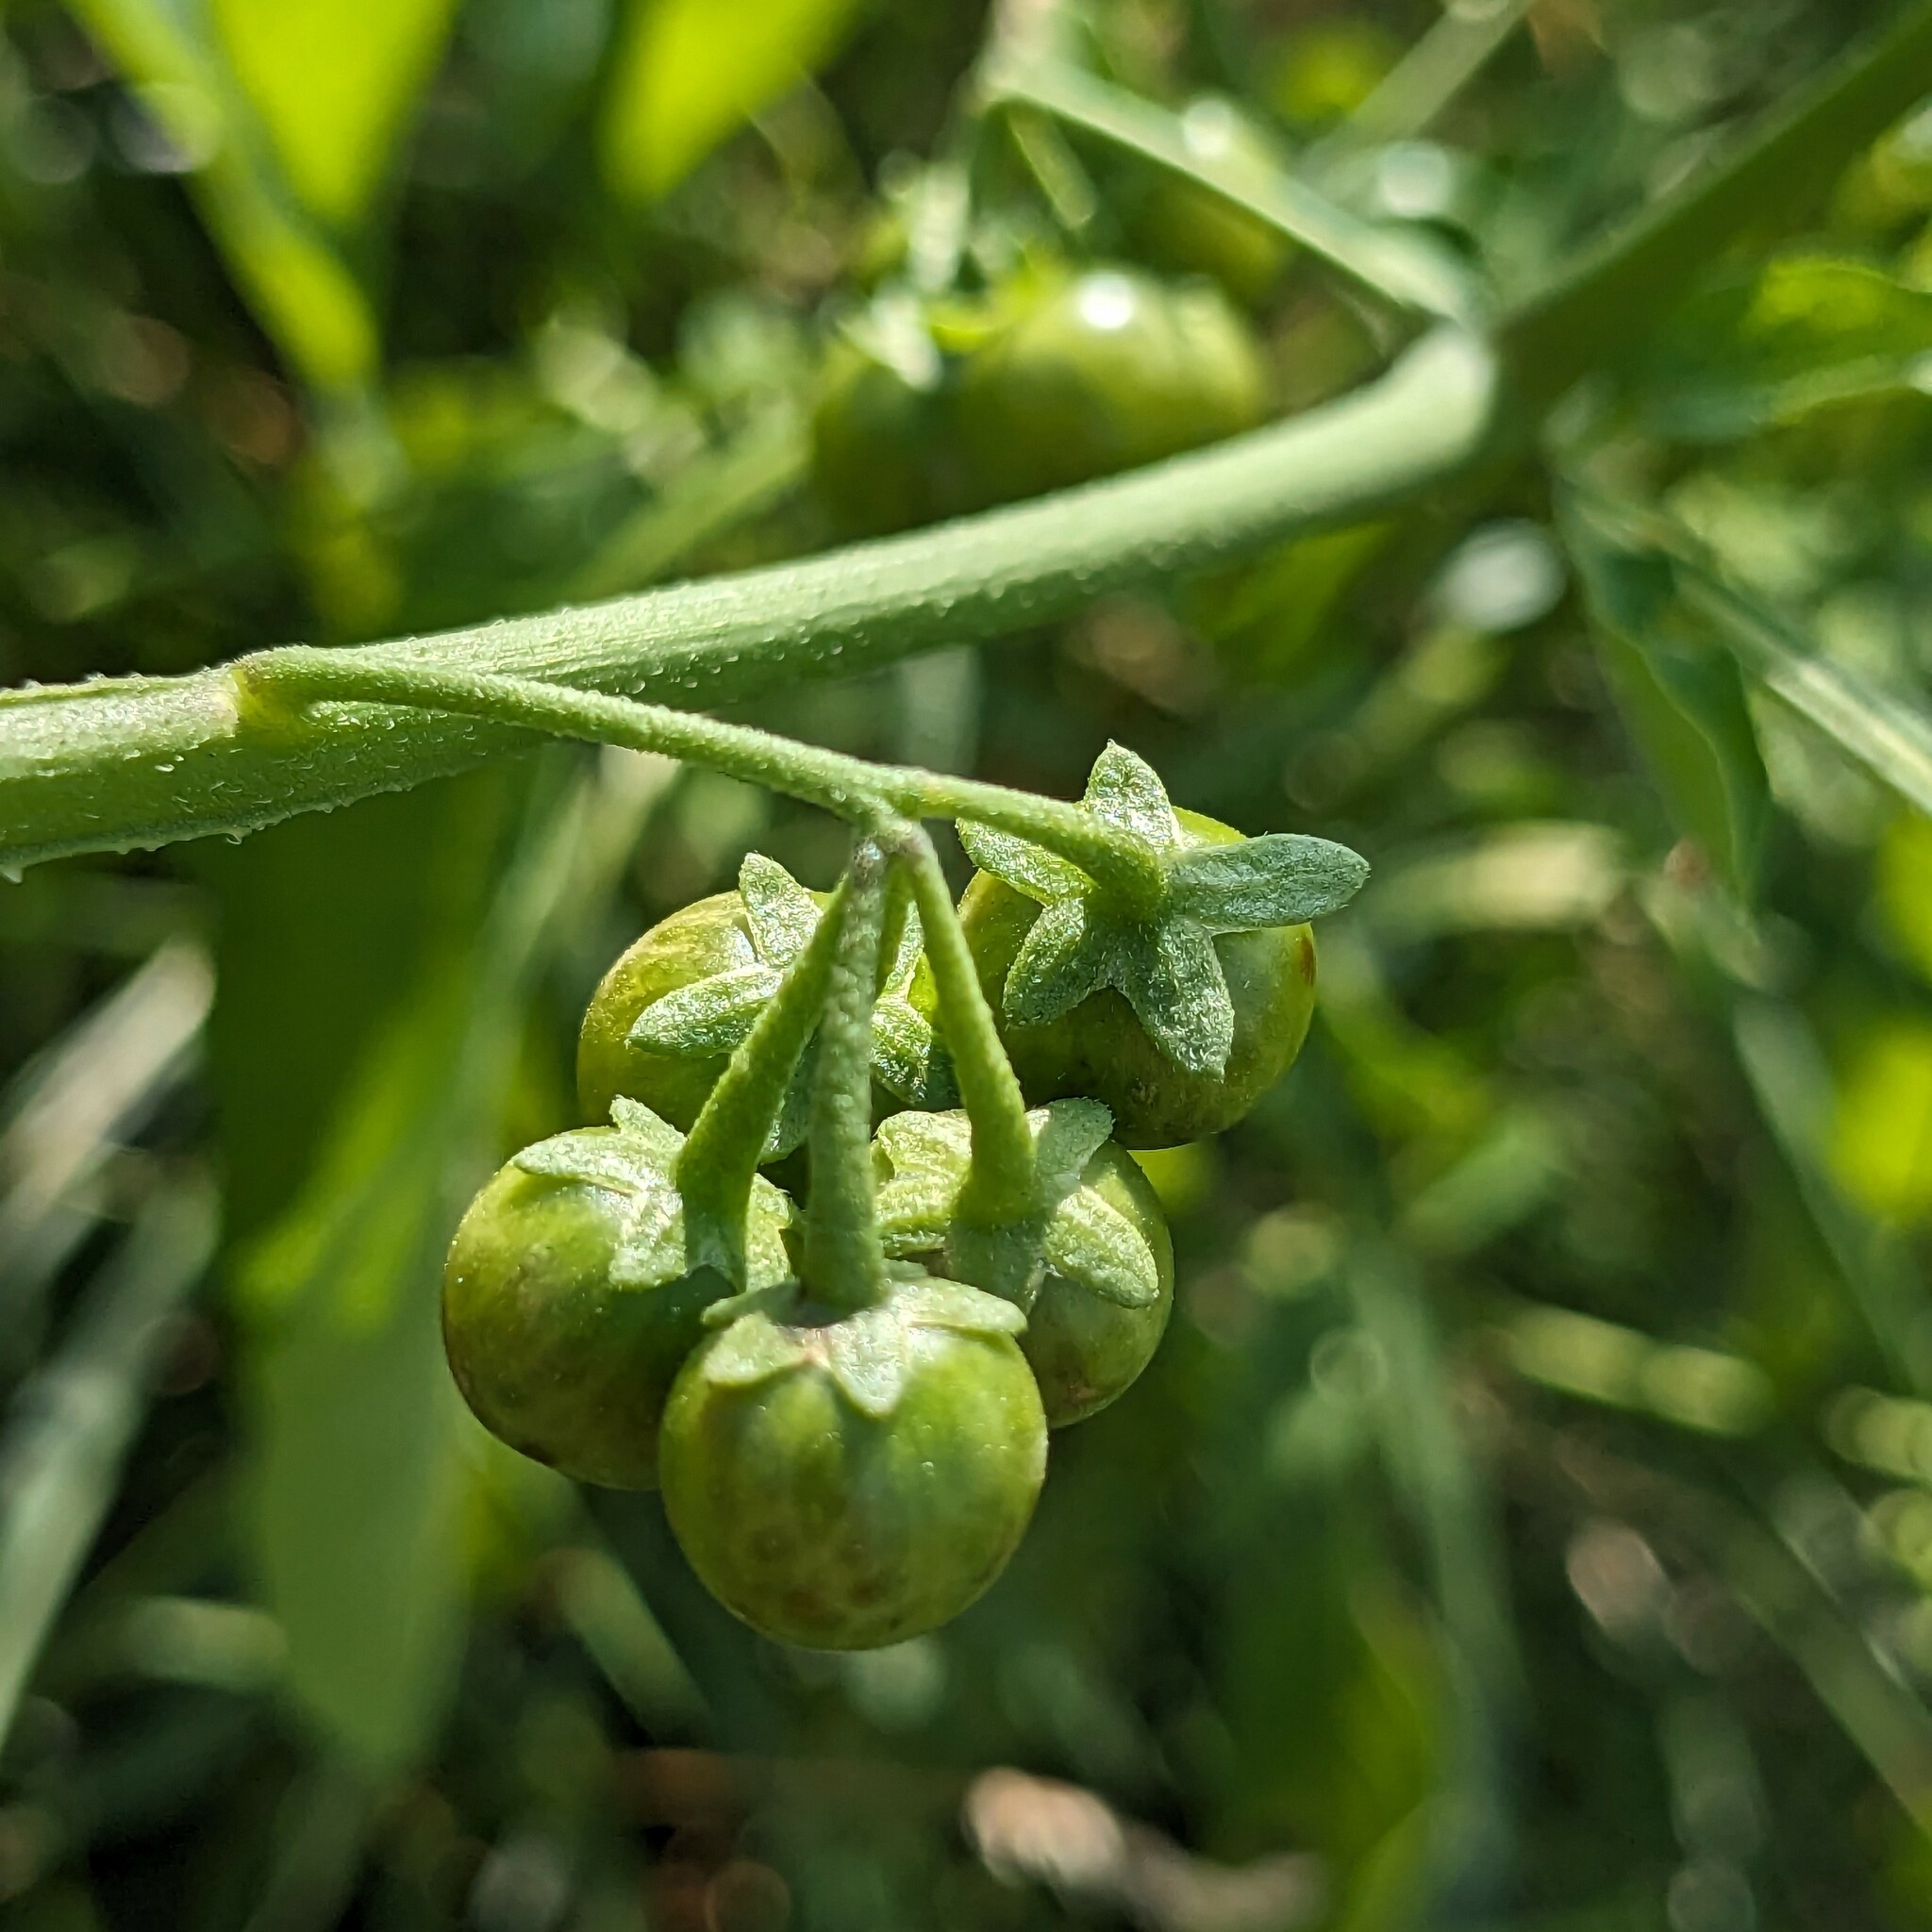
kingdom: Plantae
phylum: Tracheophyta
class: Magnoliopsida
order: Solanales
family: Solanaceae
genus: Solanum
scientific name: Solanum emulans
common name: Eastern black nightshade
